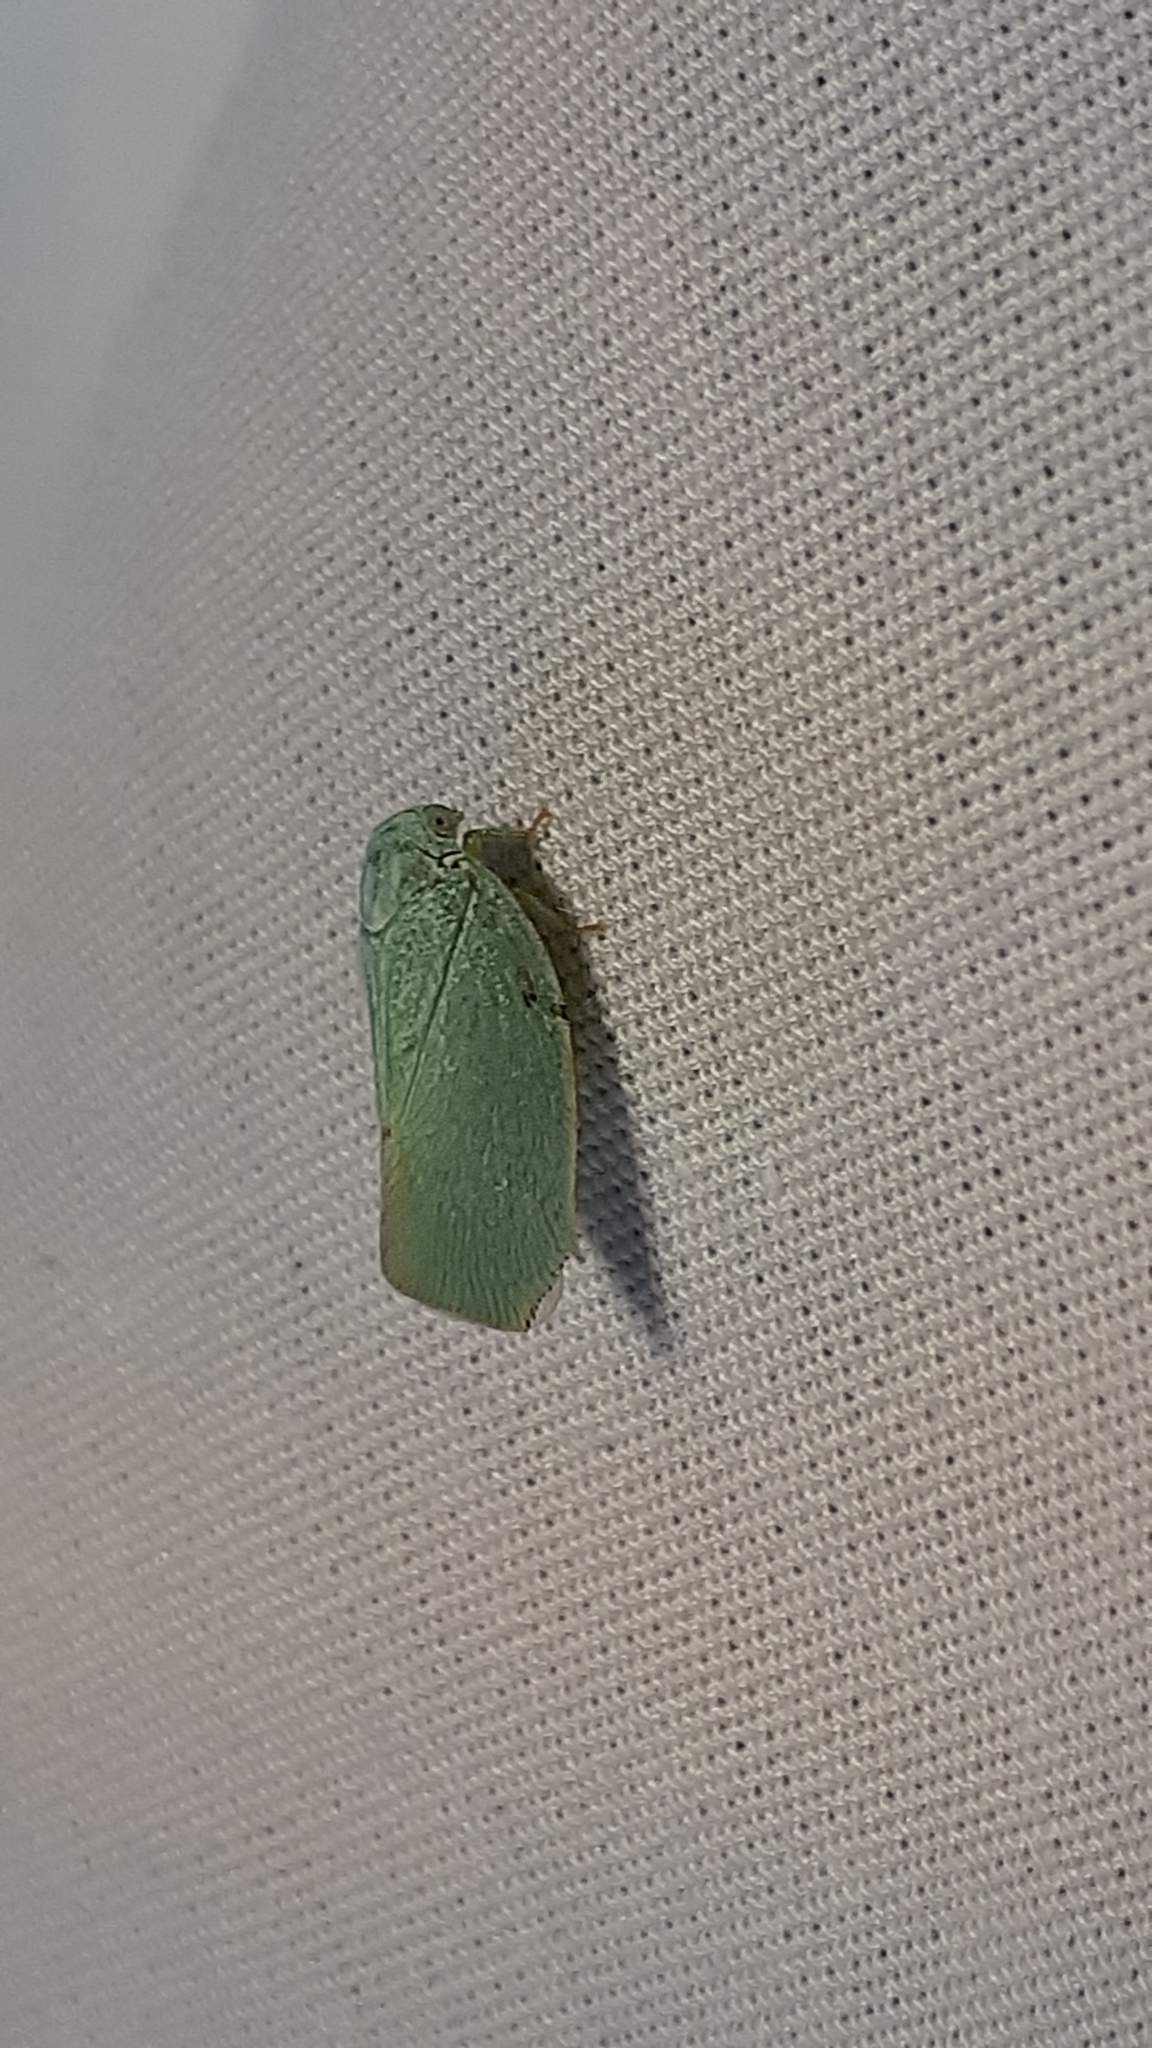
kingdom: Animalia
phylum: Arthropoda
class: Insecta
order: Hemiptera
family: Flatidae
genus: Flatormenis
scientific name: Flatormenis proxima
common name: Northern flatid planthopper
